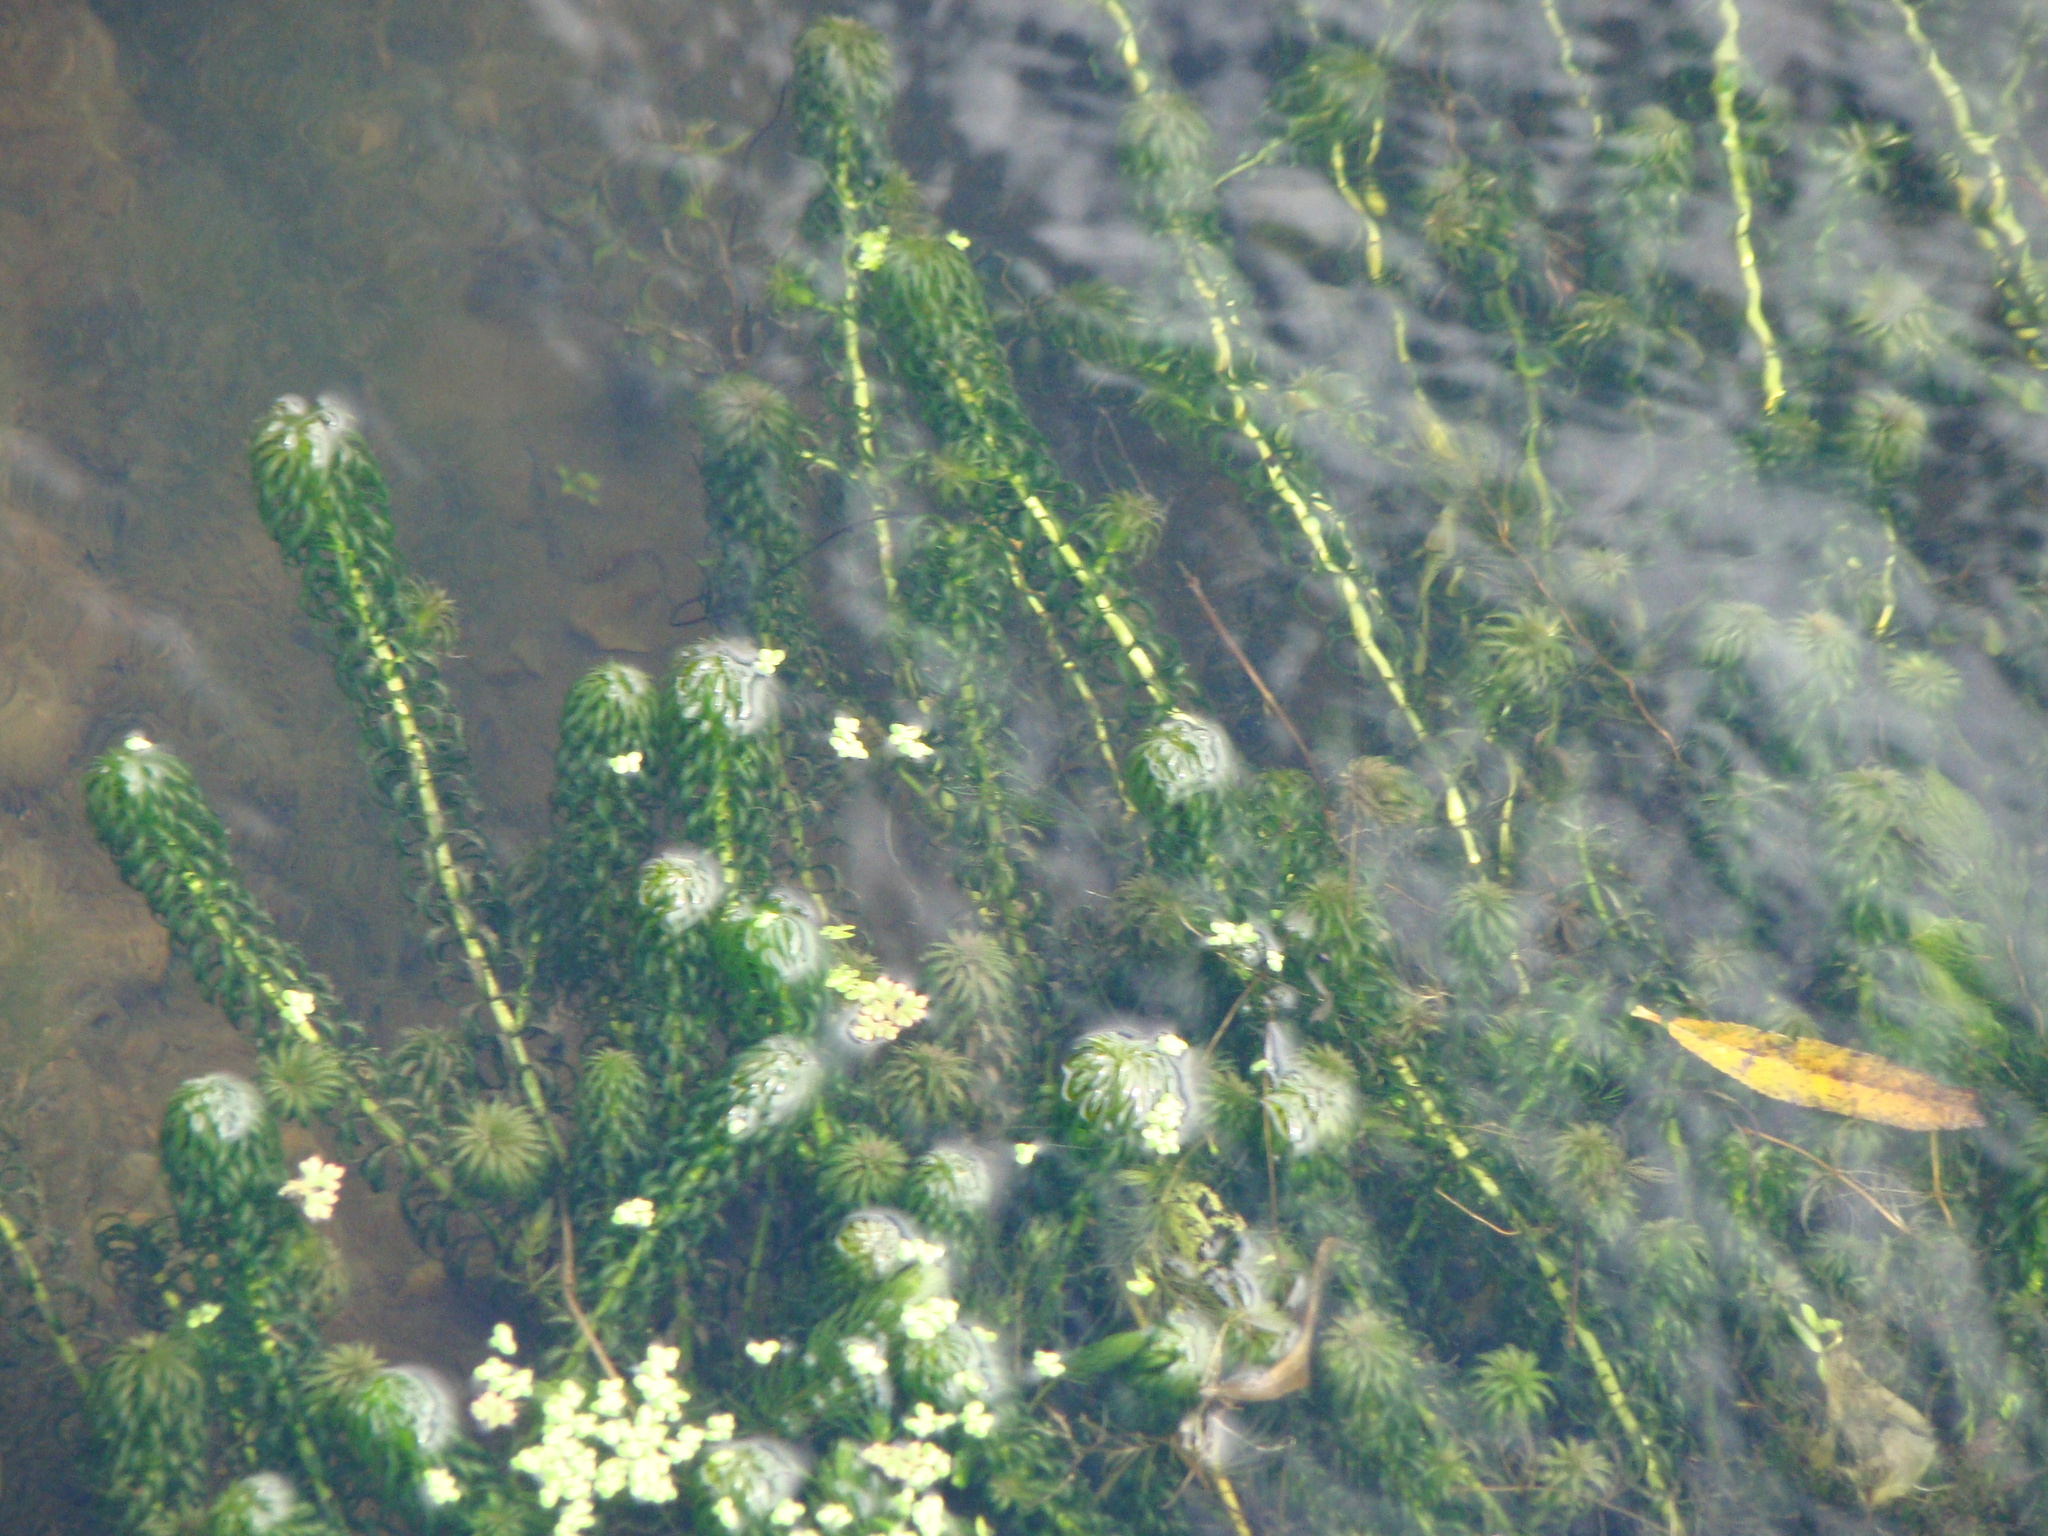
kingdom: Plantae
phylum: Tracheophyta
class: Liliopsida
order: Alismatales
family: Hydrocharitaceae
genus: Lagarosiphon
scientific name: Lagarosiphon major
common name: Curly waterweed
